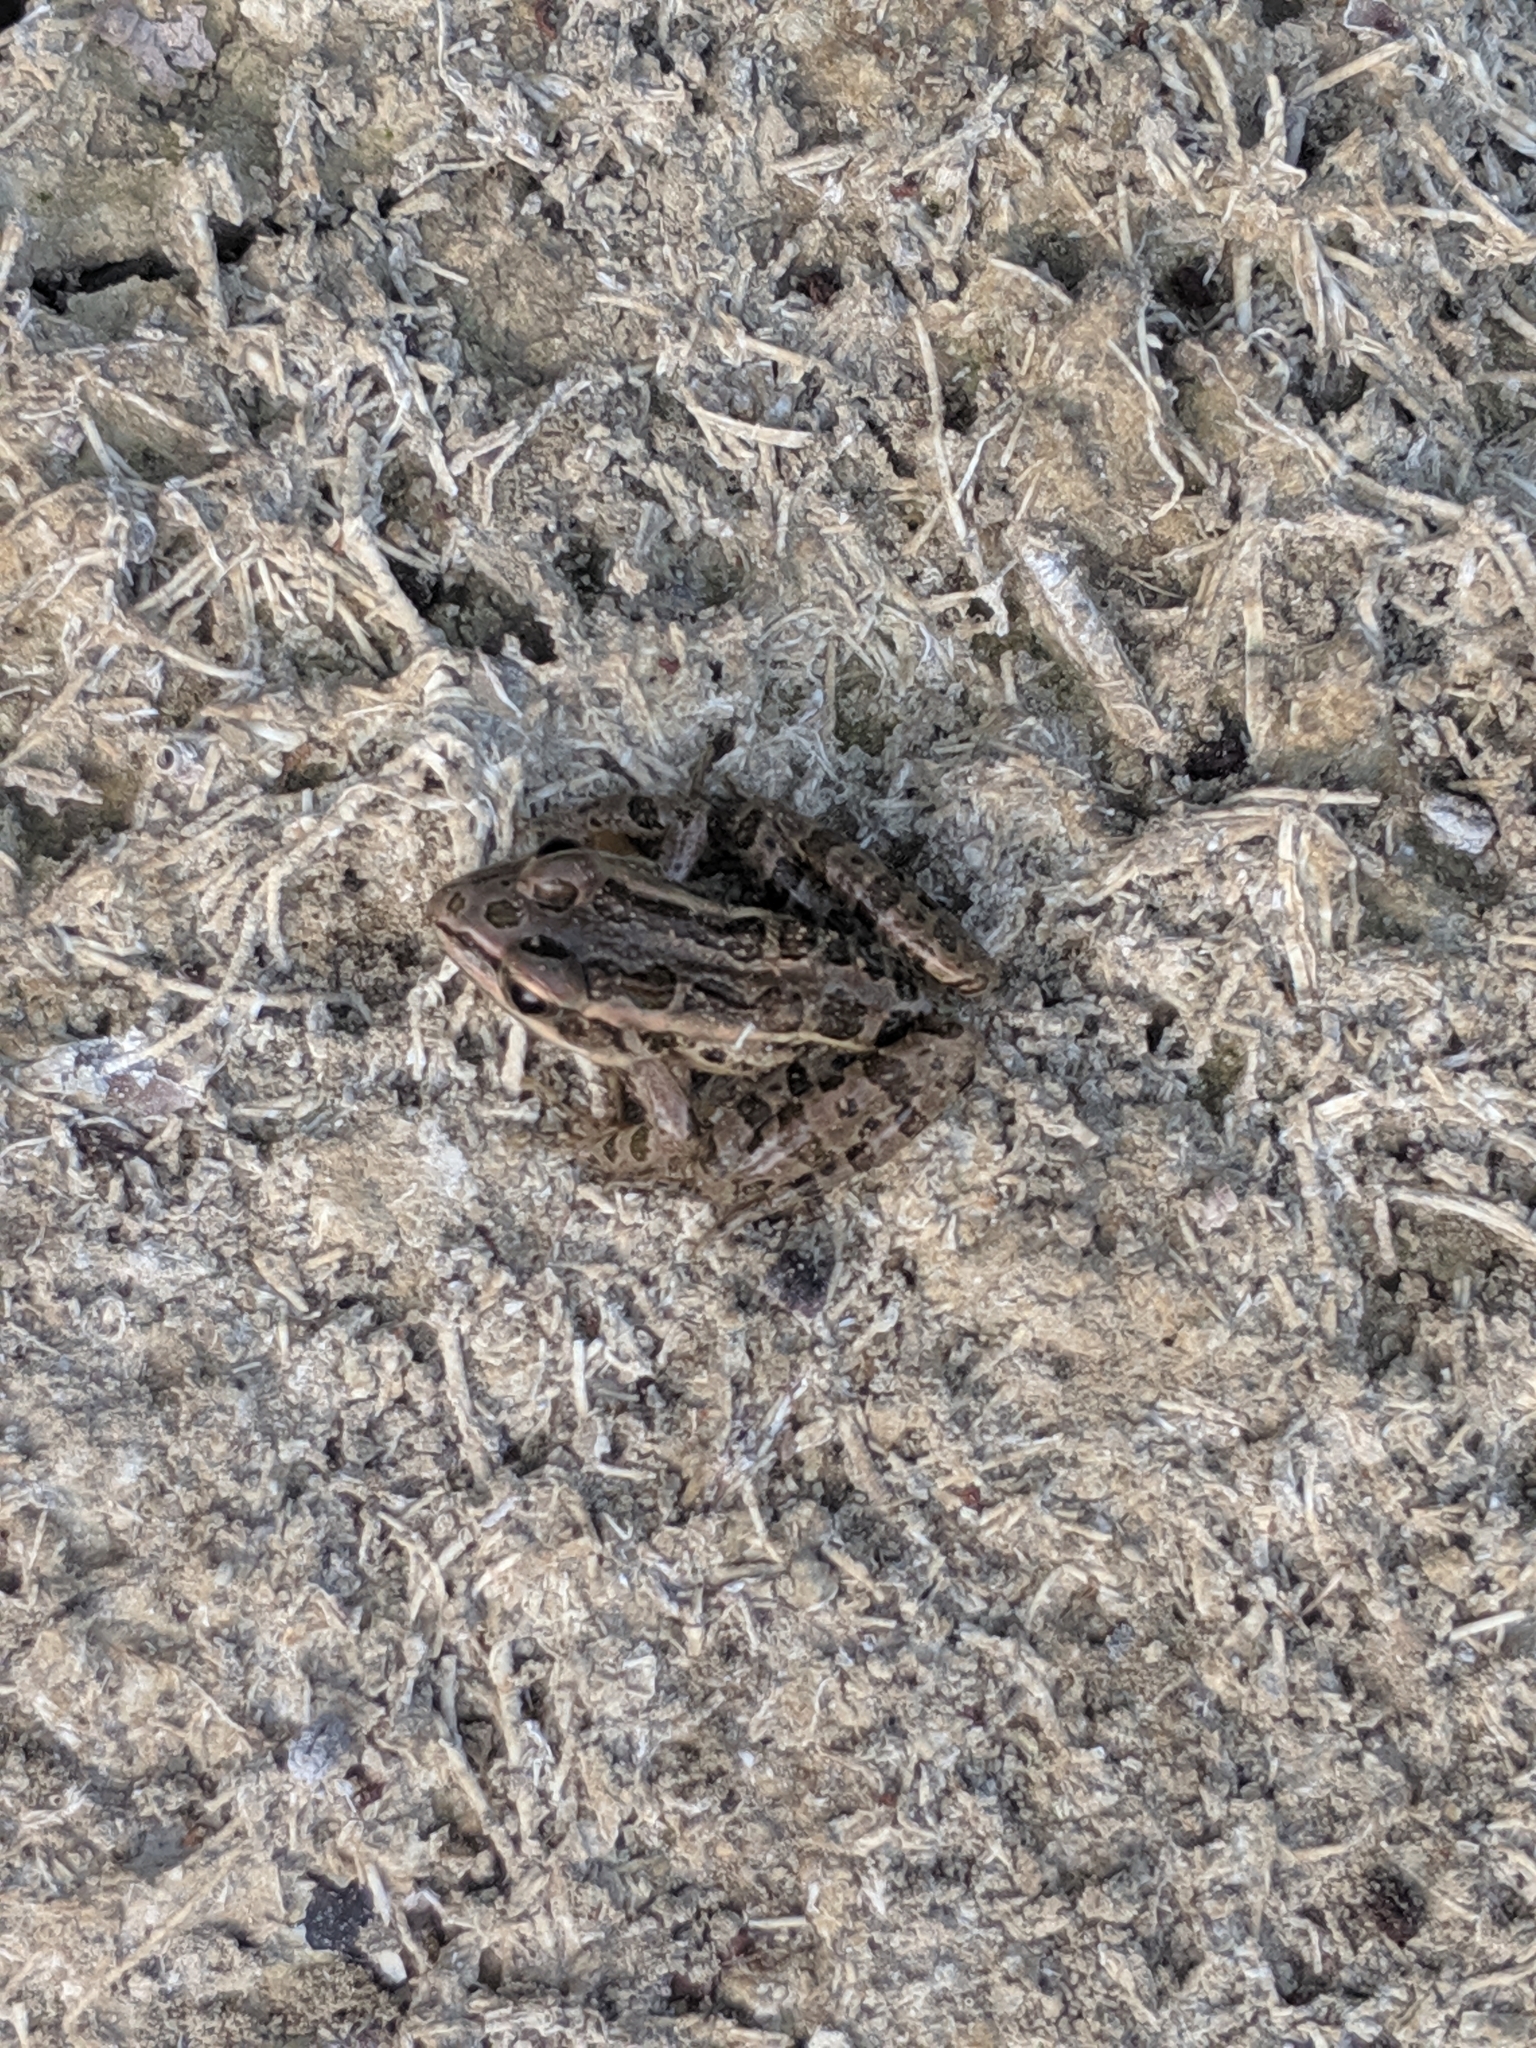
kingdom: Animalia
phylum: Chordata
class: Amphibia
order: Anura
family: Ranidae
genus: Lithobates
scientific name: Lithobates palustris
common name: Pickerel frog
